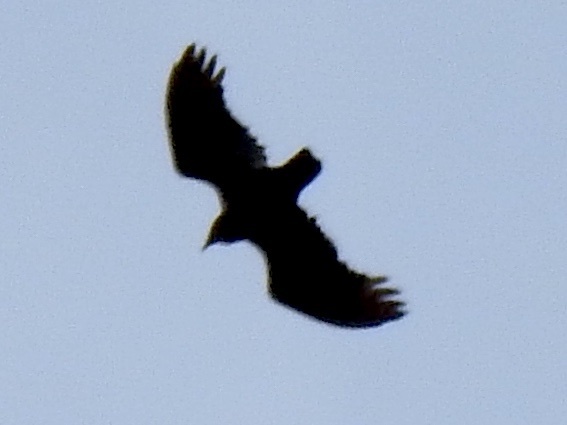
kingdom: Animalia
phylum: Chordata
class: Aves
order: Accipitriformes
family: Cathartidae
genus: Cathartes
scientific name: Cathartes aura
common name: Turkey vulture
